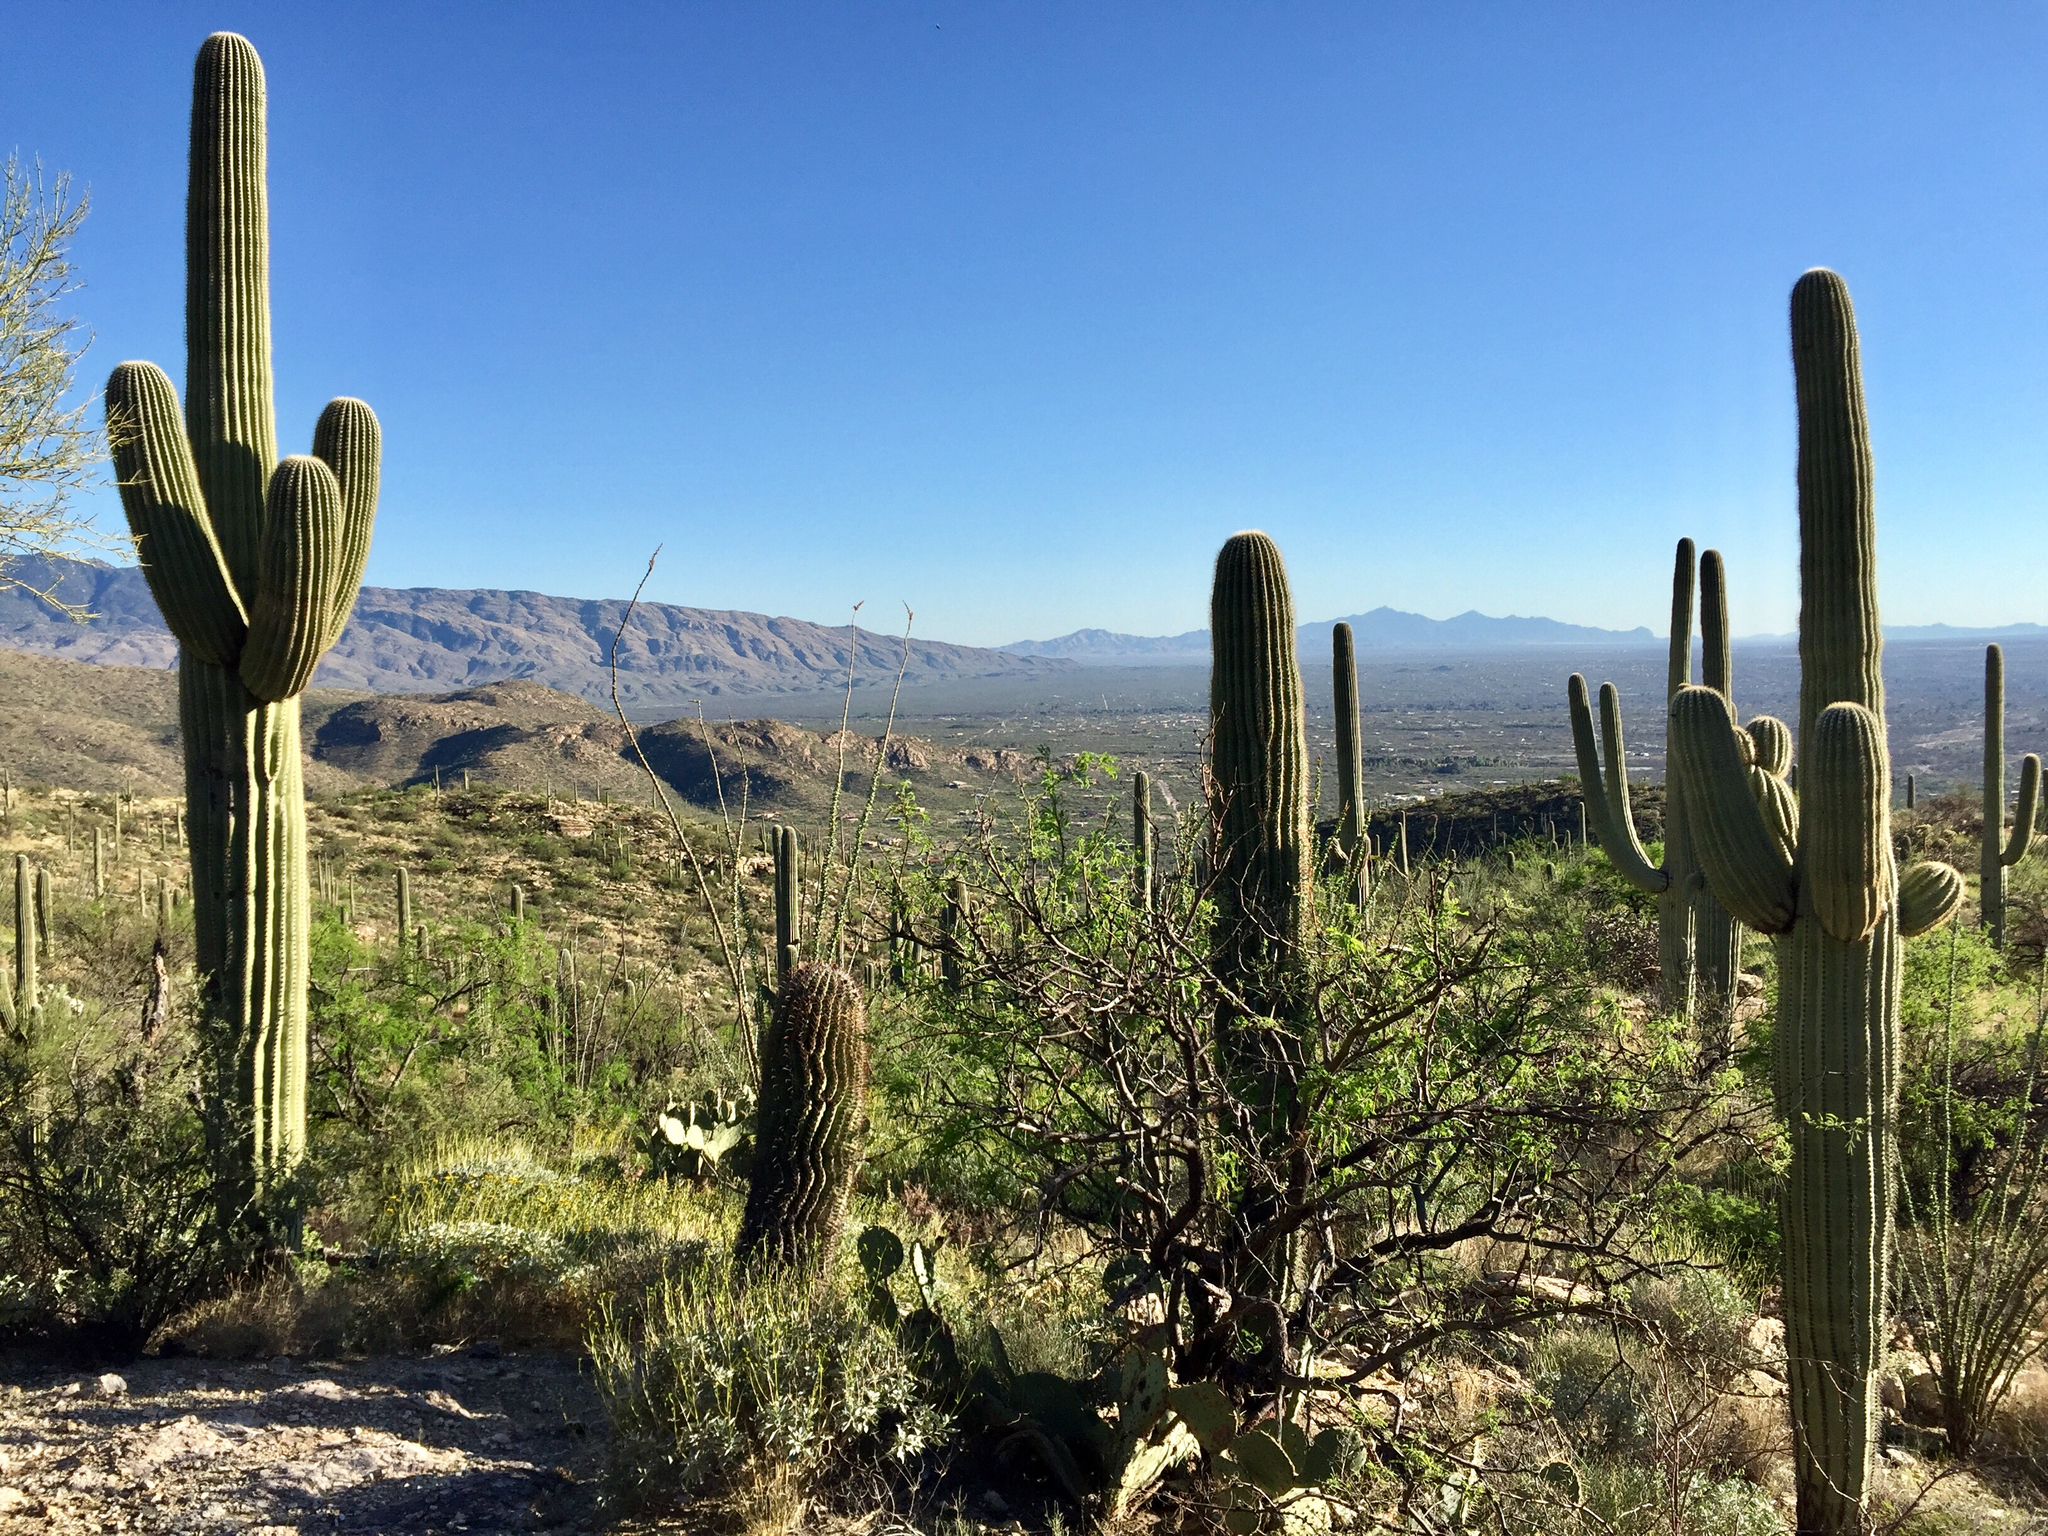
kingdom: Plantae
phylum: Tracheophyta
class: Magnoliopsida
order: Caryophyllales
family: Cactaceae
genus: Carnegiea
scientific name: Carnegiea gigantea
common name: Saguaro
